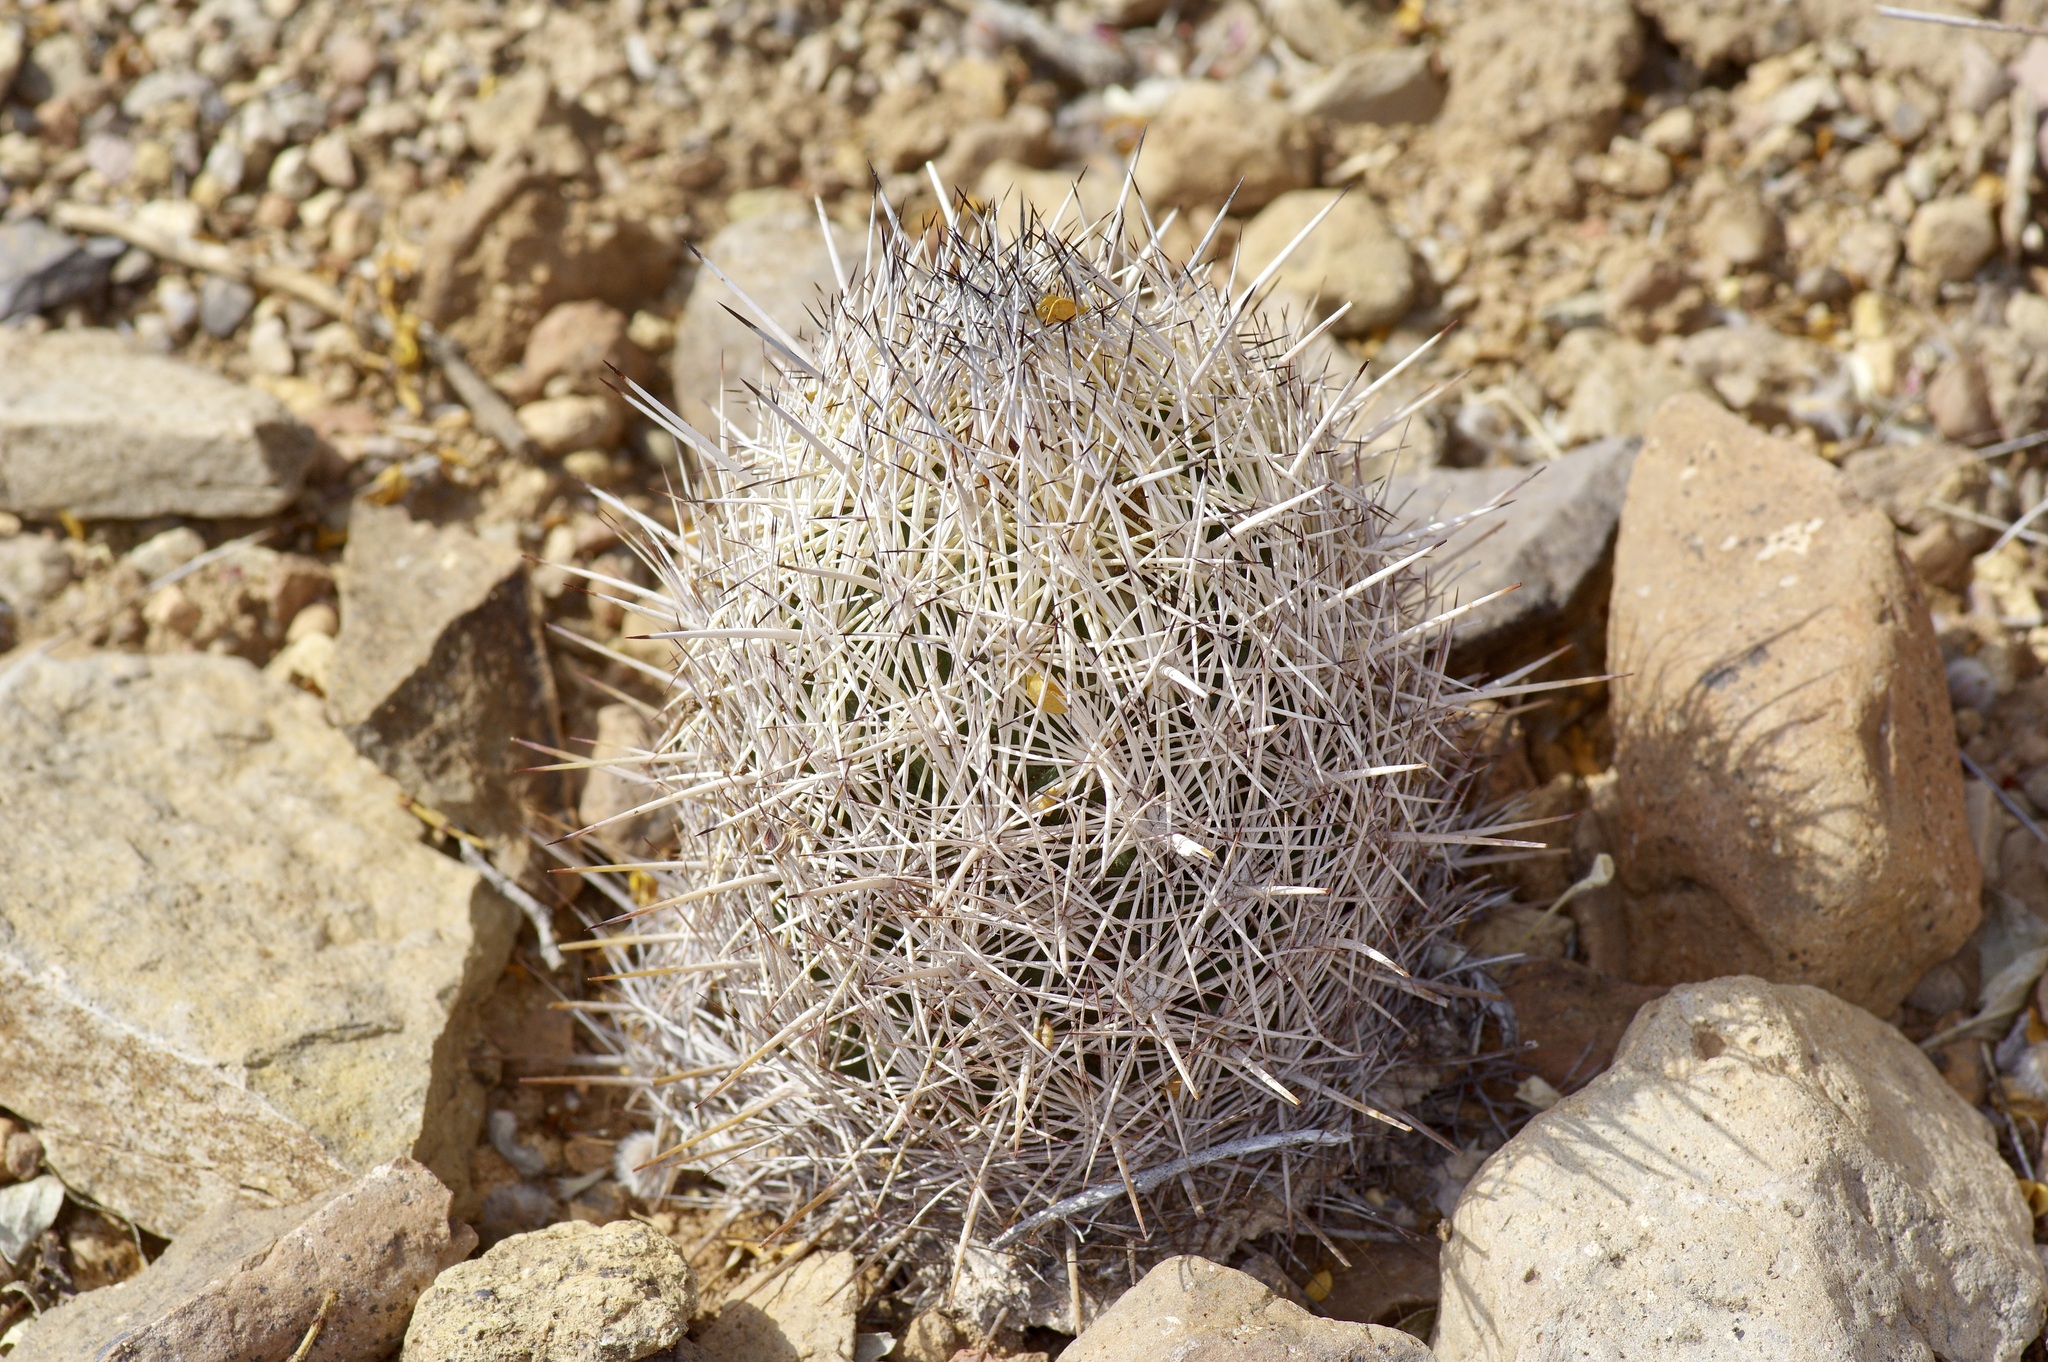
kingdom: Plantae
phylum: Tracheophyta
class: Magnoliopsida
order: Caryophyllales
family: Cactaceae
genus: Coryphantha
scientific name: Coryphantha echinus
